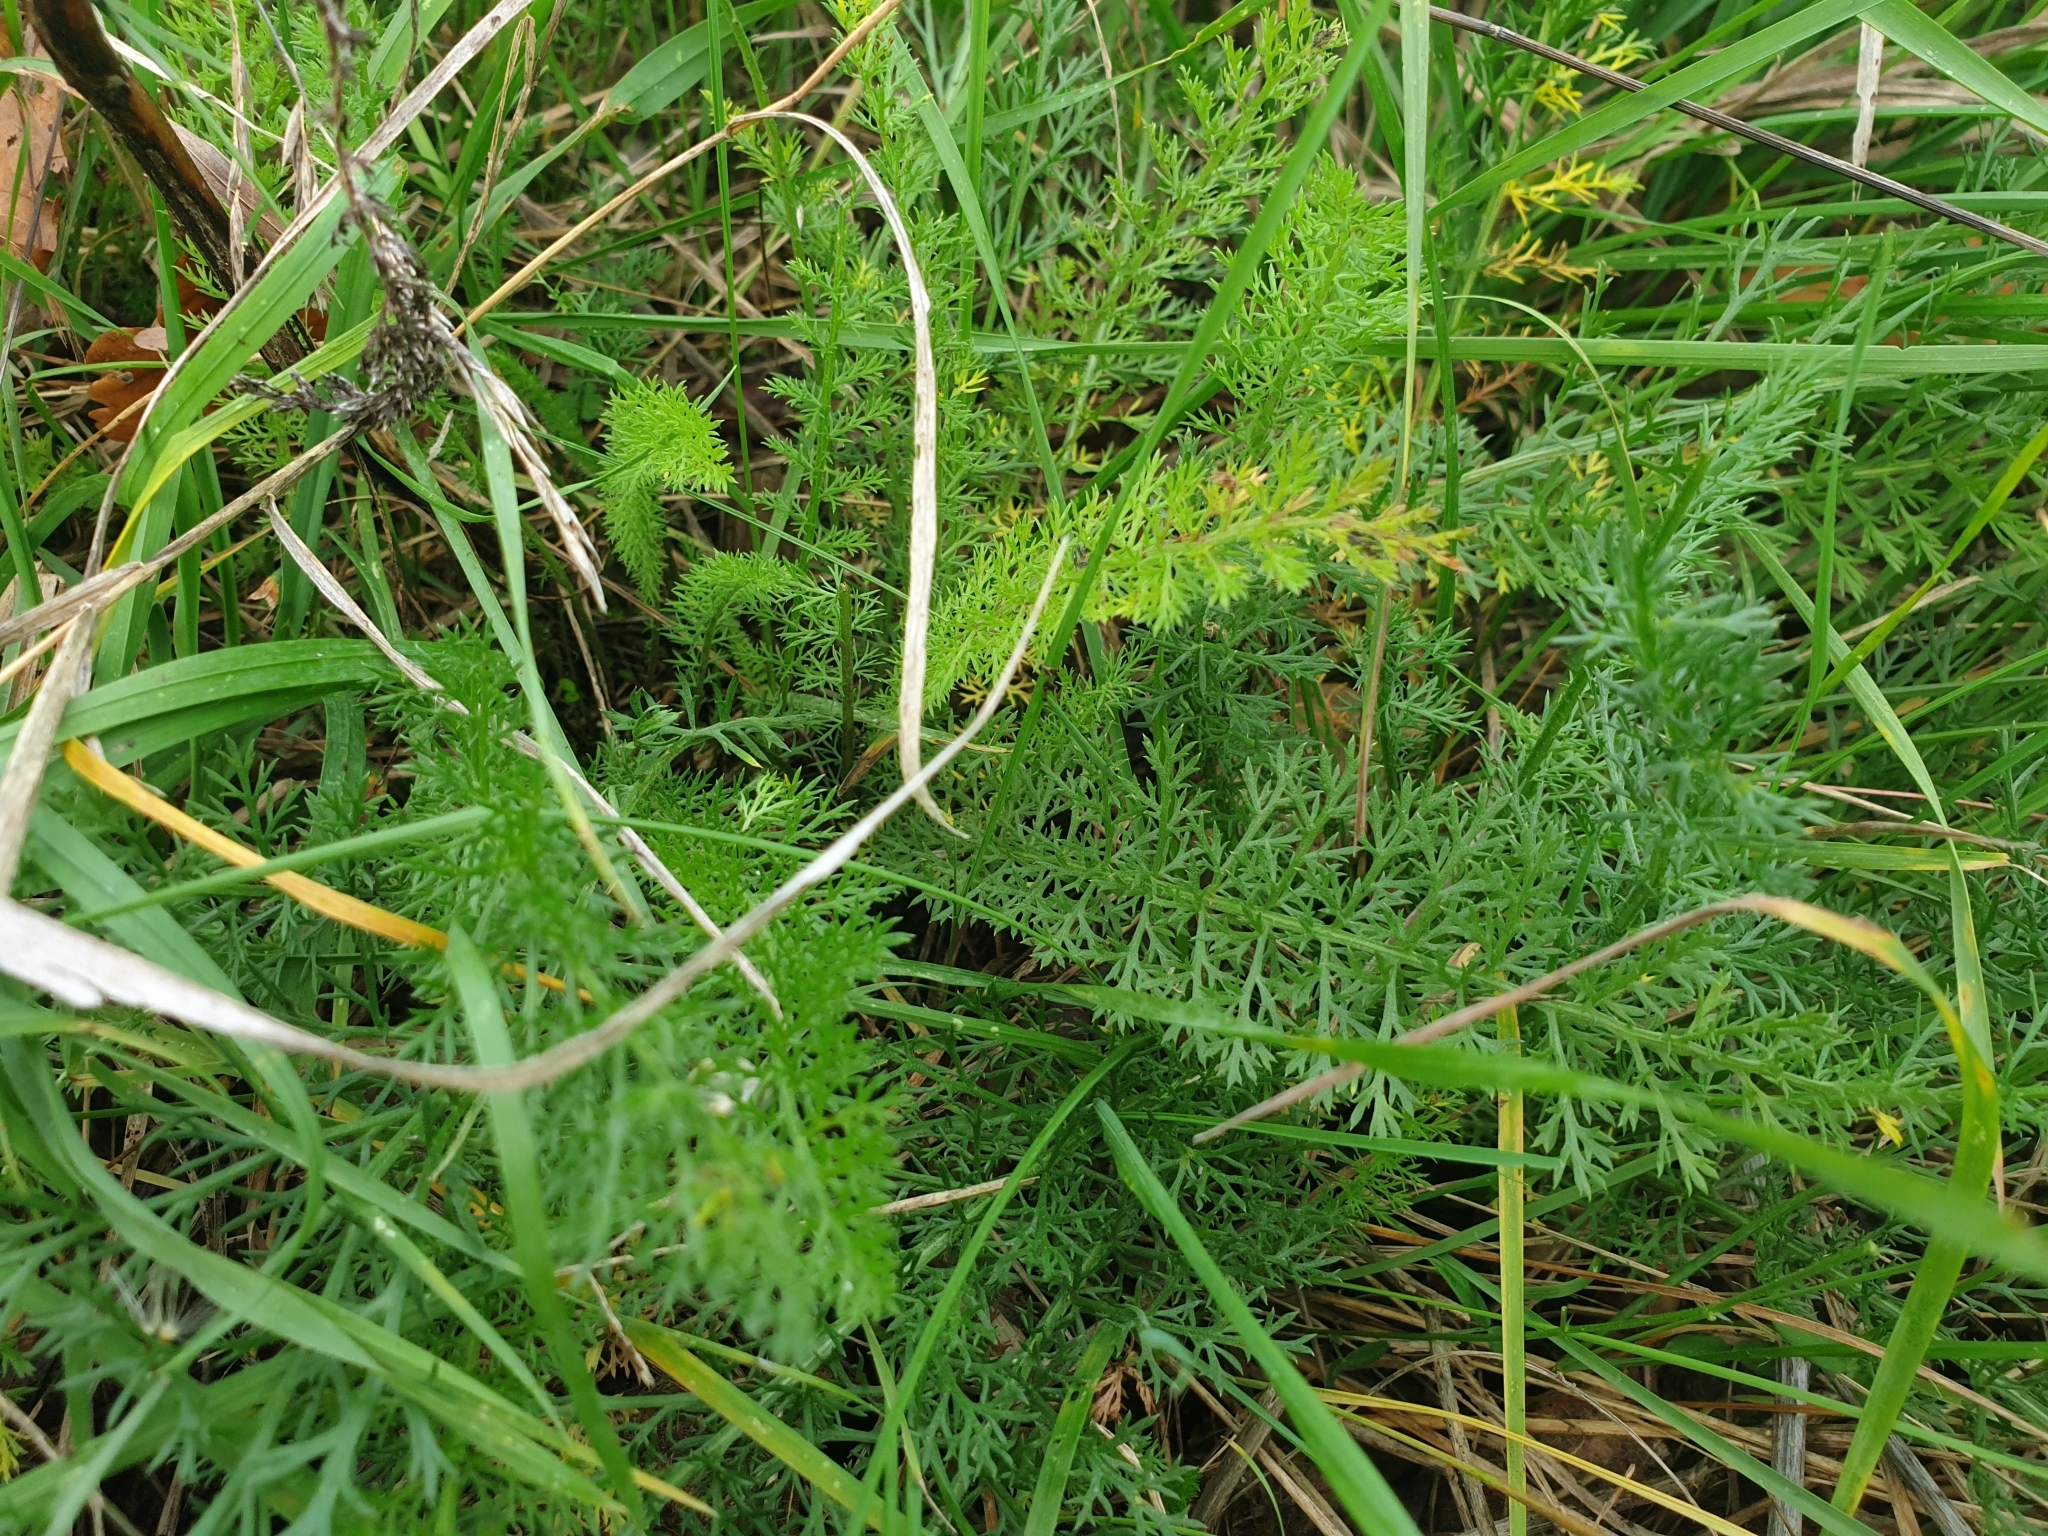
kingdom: Plantae
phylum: Tracheophyta
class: Magnoliopsida
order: Asterales
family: Asteraceae
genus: Achillea
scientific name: Achillea millefolium
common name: Yarrow
